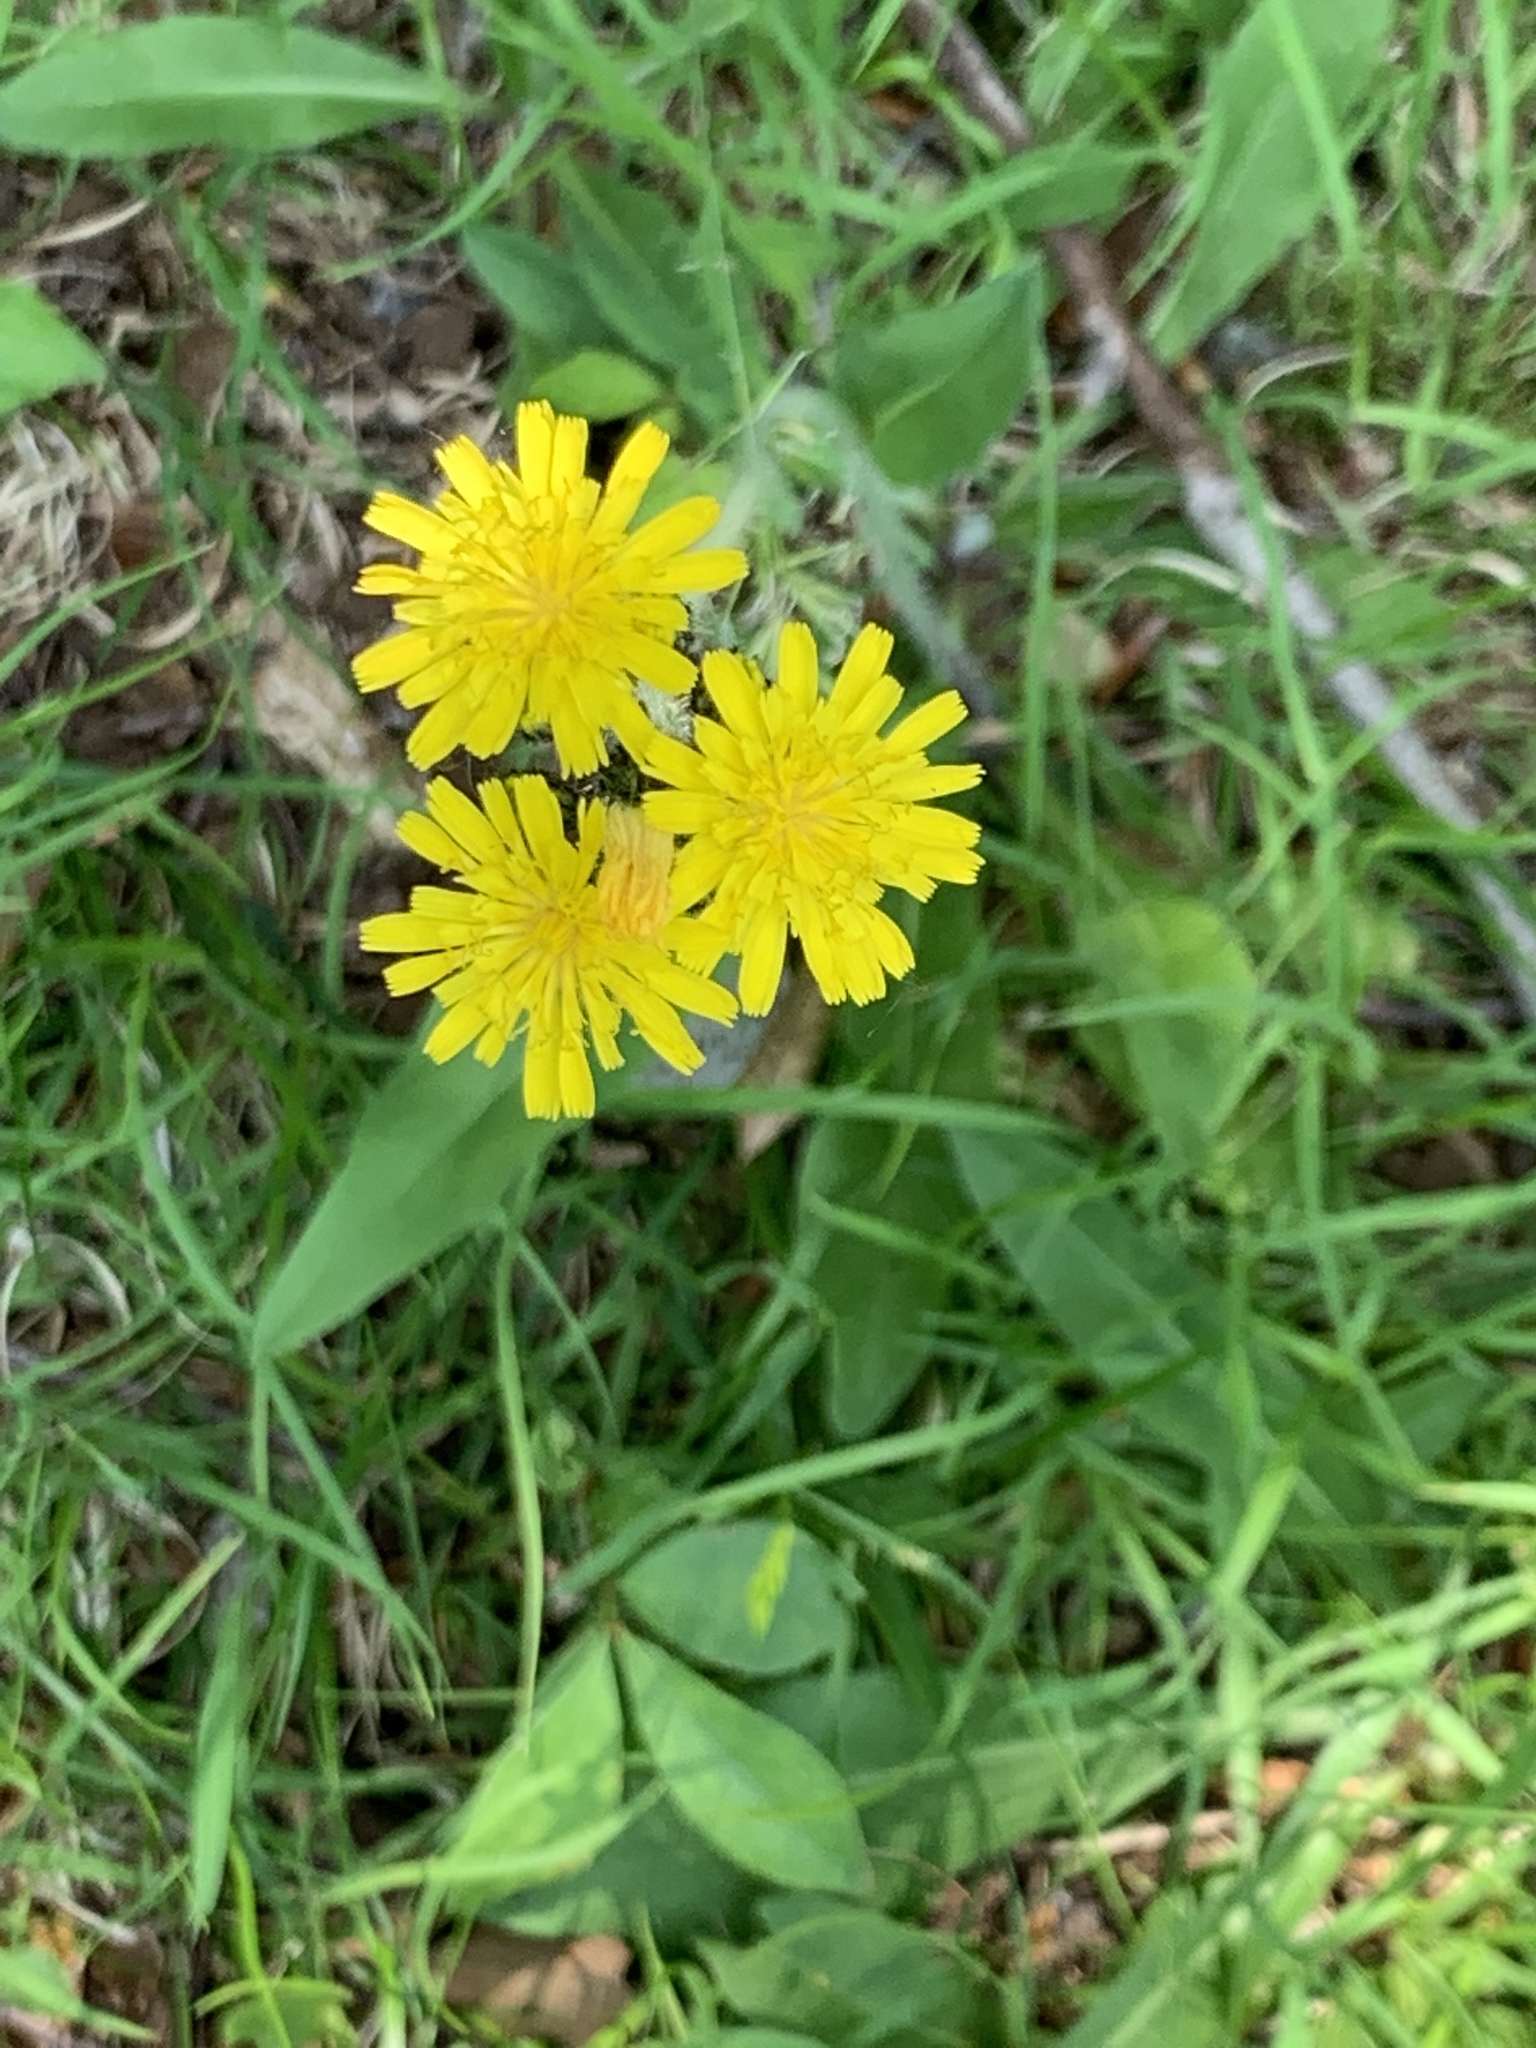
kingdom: Plantae
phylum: Tracheophyta
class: Magnoliopsida
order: Asterales
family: Asteraceae
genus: Pilosella
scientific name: Pilosella caespitosa
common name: Yellow fox-and-cubs
